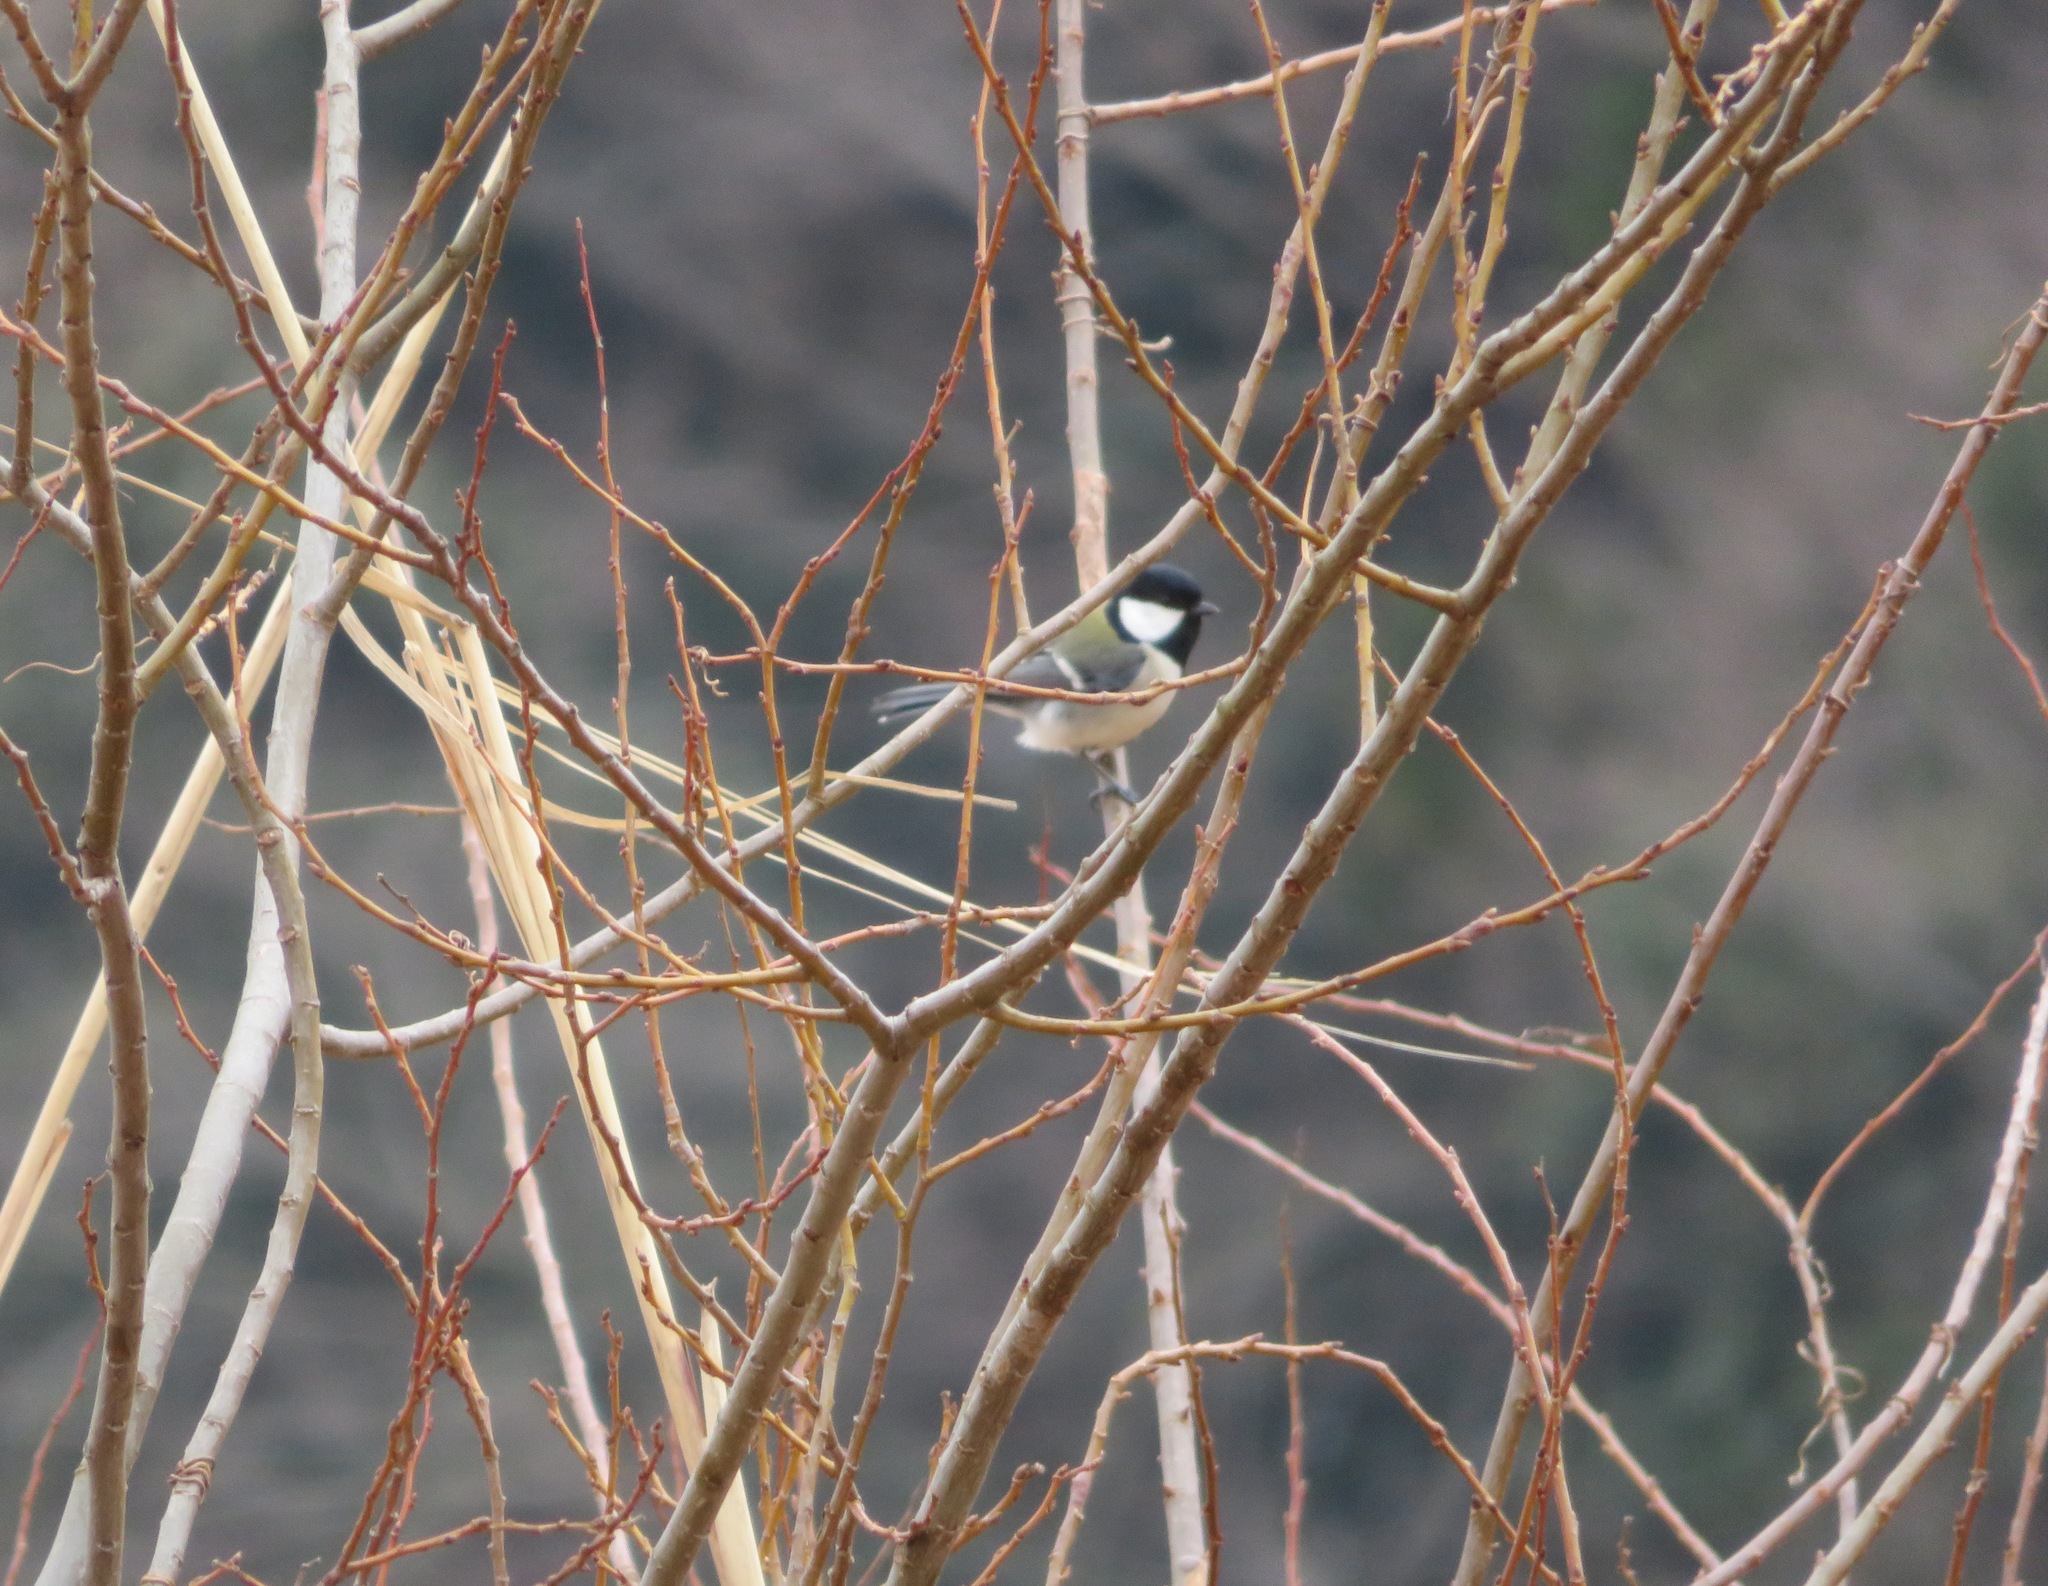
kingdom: Animalia
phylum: Chordata
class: Aves
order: Passeriformes
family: Paridae
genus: Parus
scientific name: Parus minor
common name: Japanese tit
